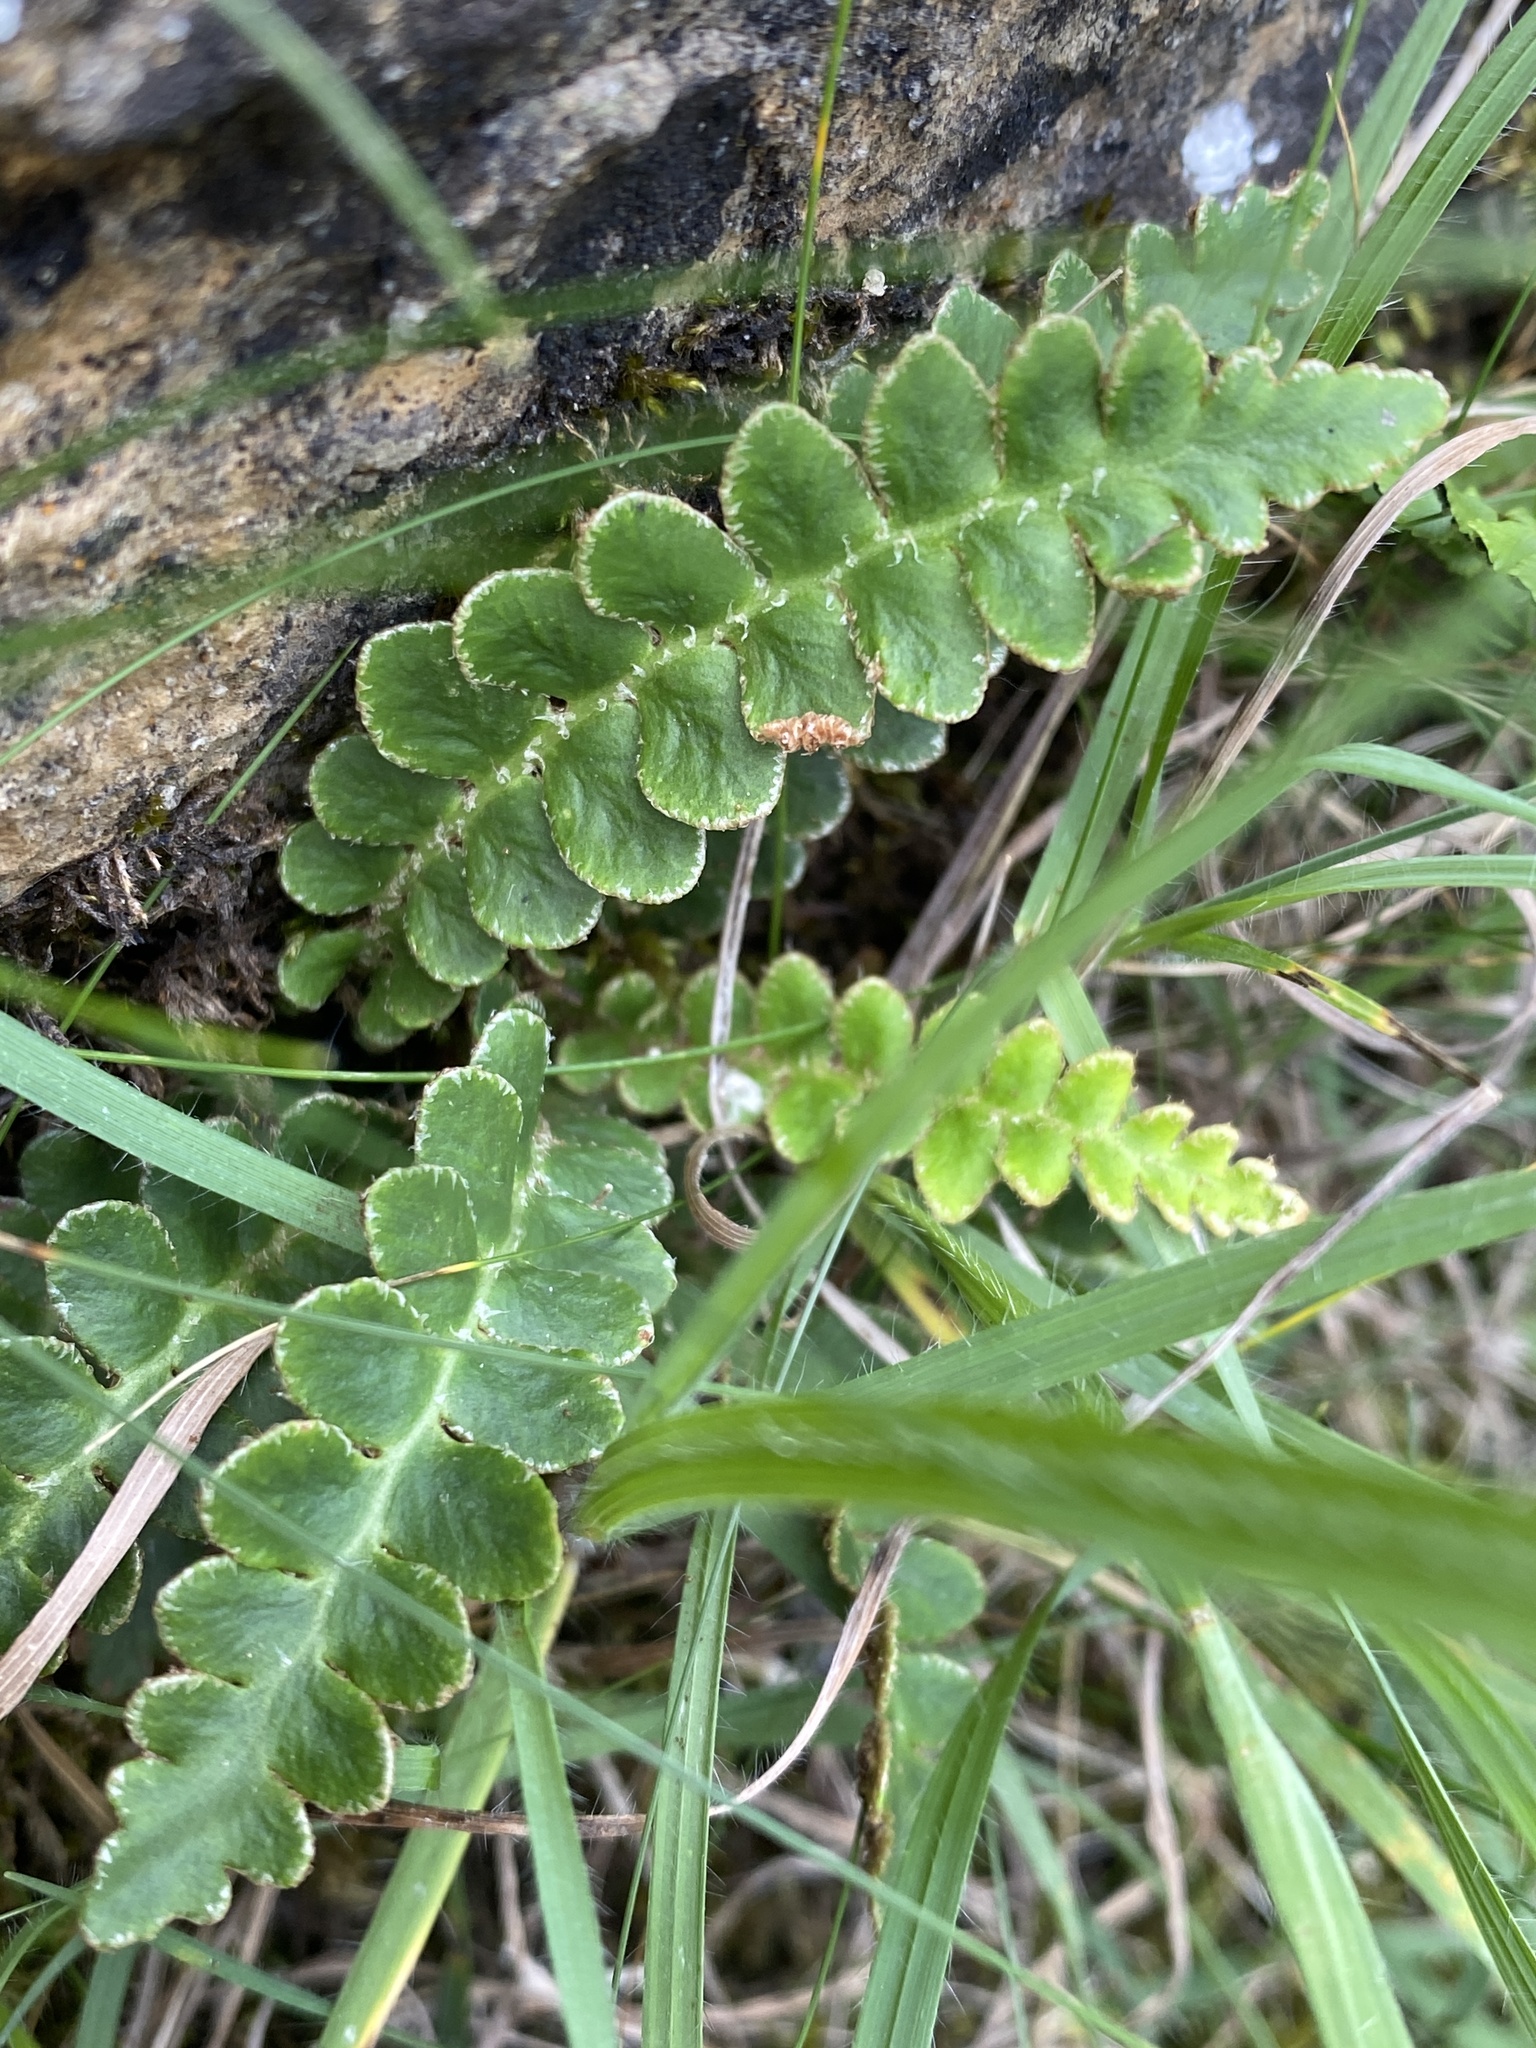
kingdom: Plantae
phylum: Tracheophyta
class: Polypodiopsida
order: Polypodiales
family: Aspleniaceae
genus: Asplenium
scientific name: Asplenium ceterach
